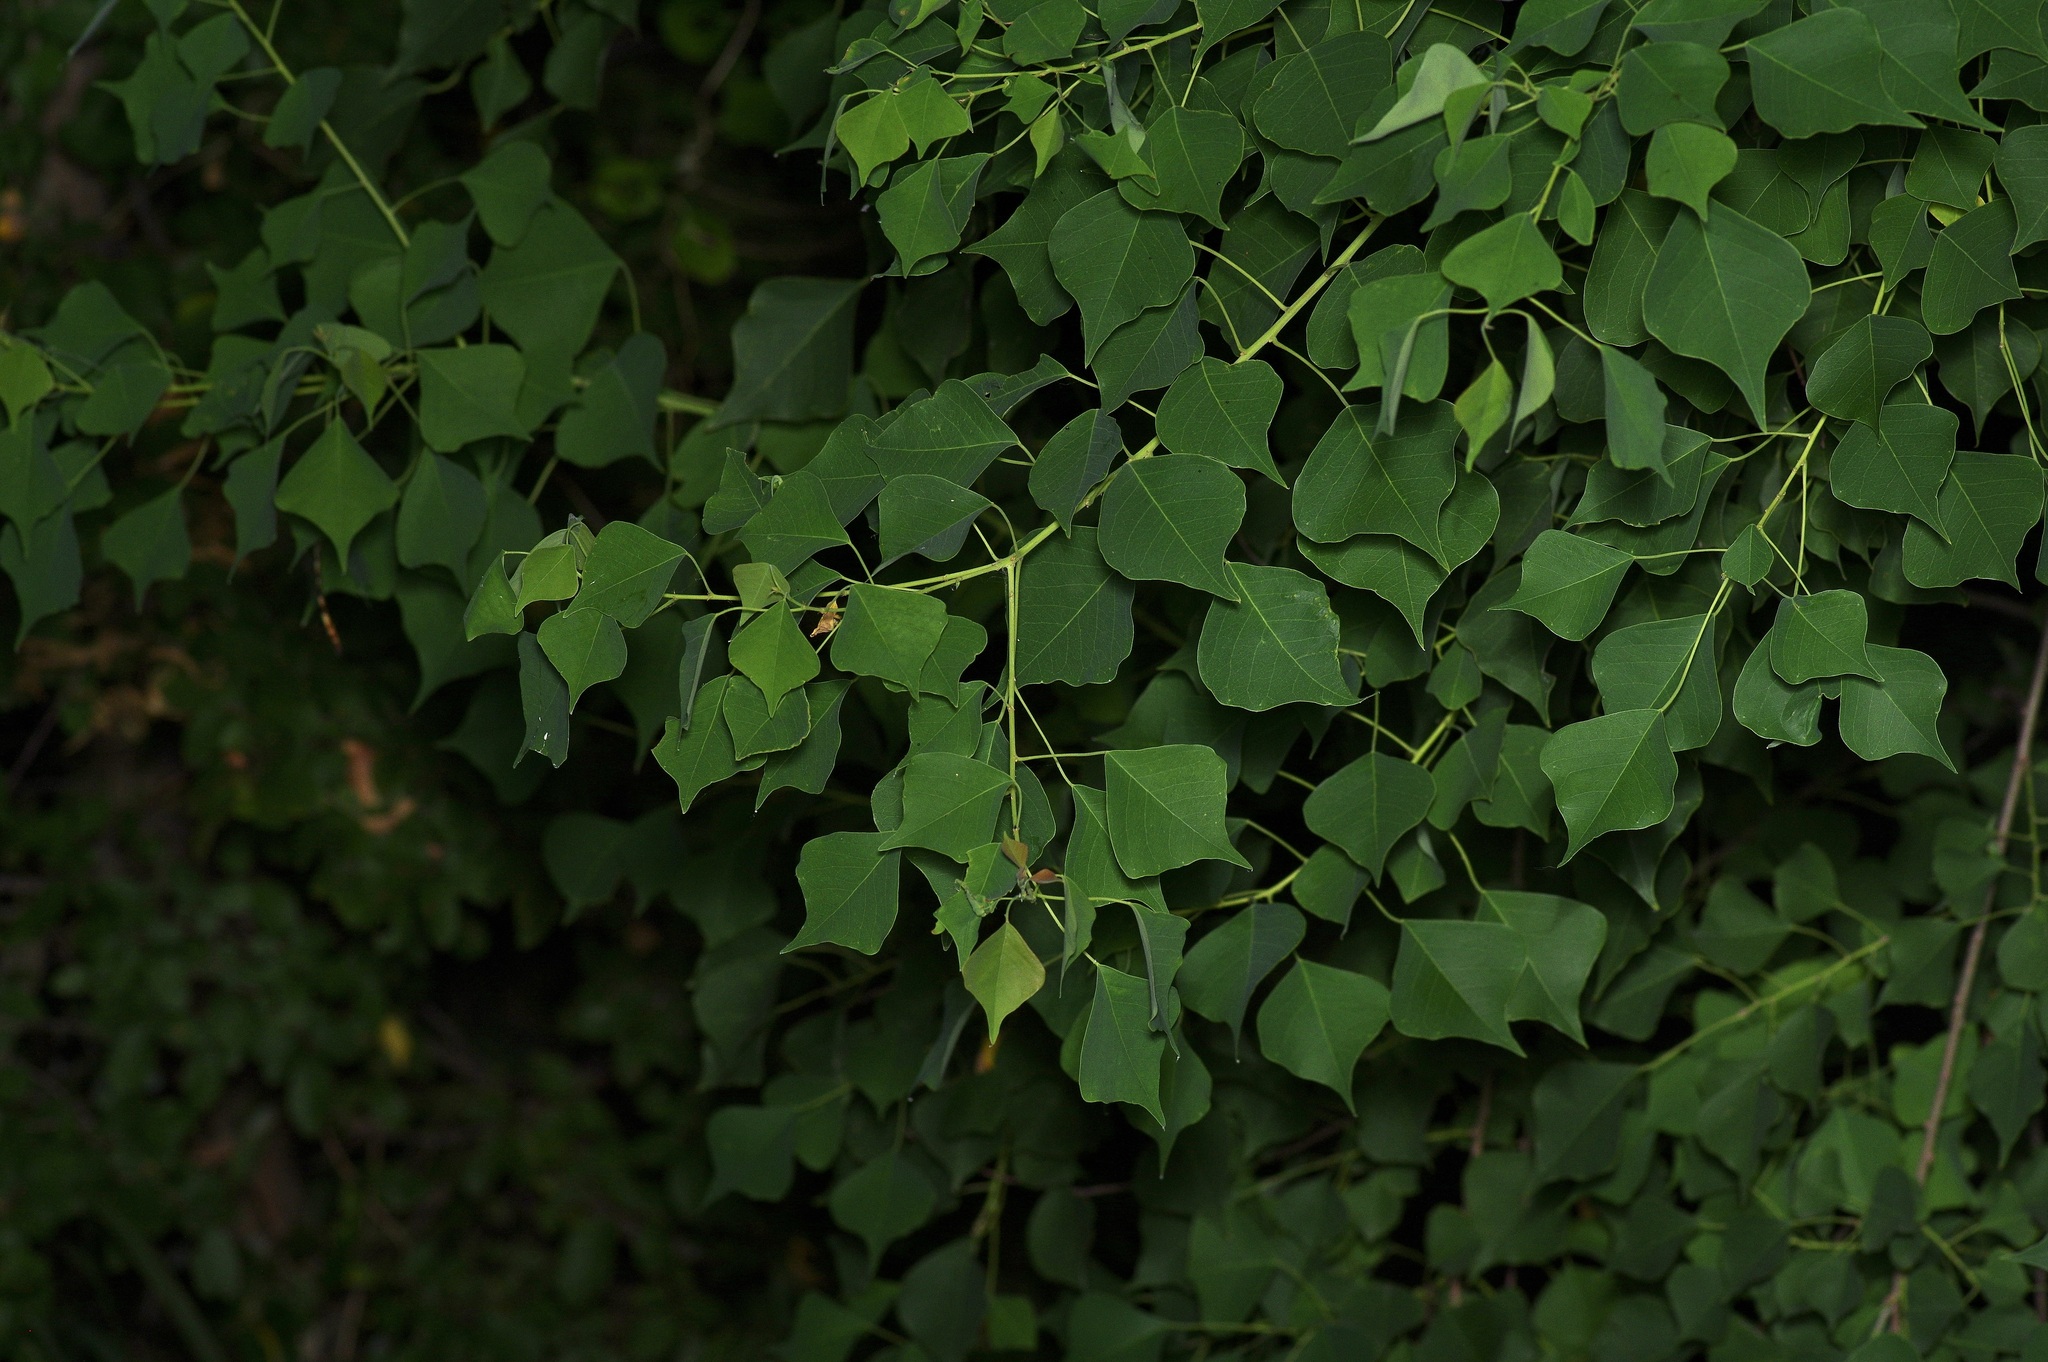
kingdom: Plantae
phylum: Tracheophyta
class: Magnoliopsida
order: Malpighiales
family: Euphorbiaceae
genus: Triadica
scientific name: Triadica sebifera
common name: Chinese tallow
